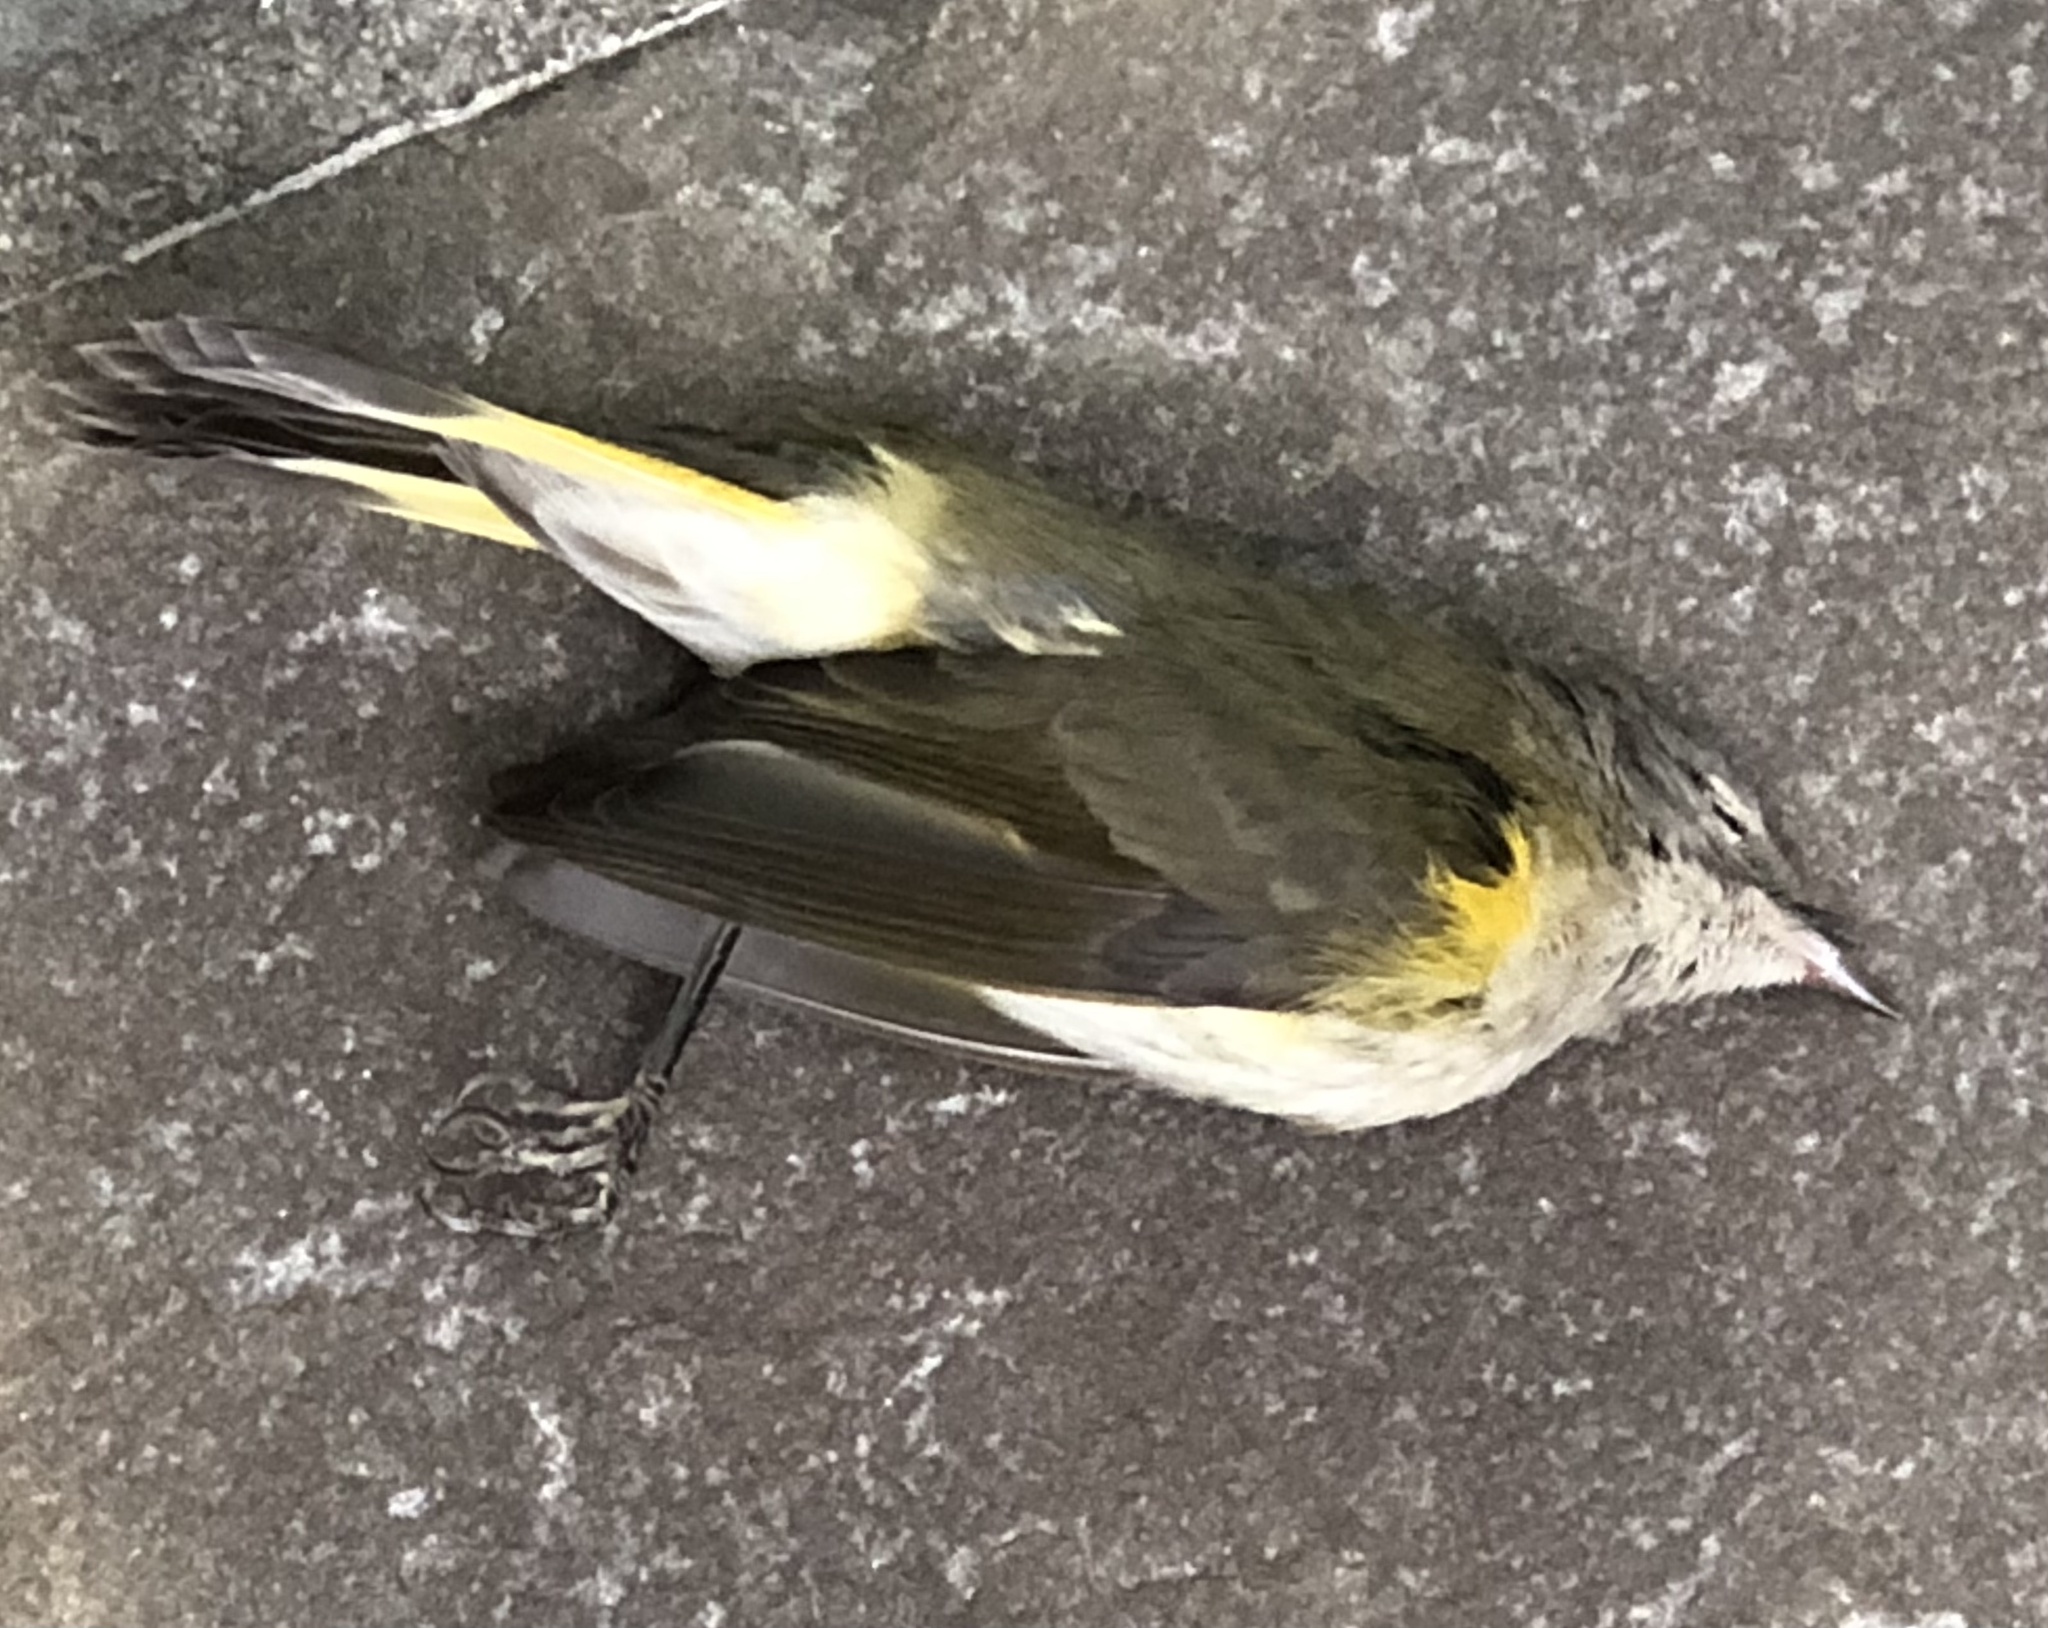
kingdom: Animalia
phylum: Chordata
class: Aves
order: Passeriformes
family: Parulidae
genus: Setophaga
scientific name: Setophaga ruticilla
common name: American redstart
